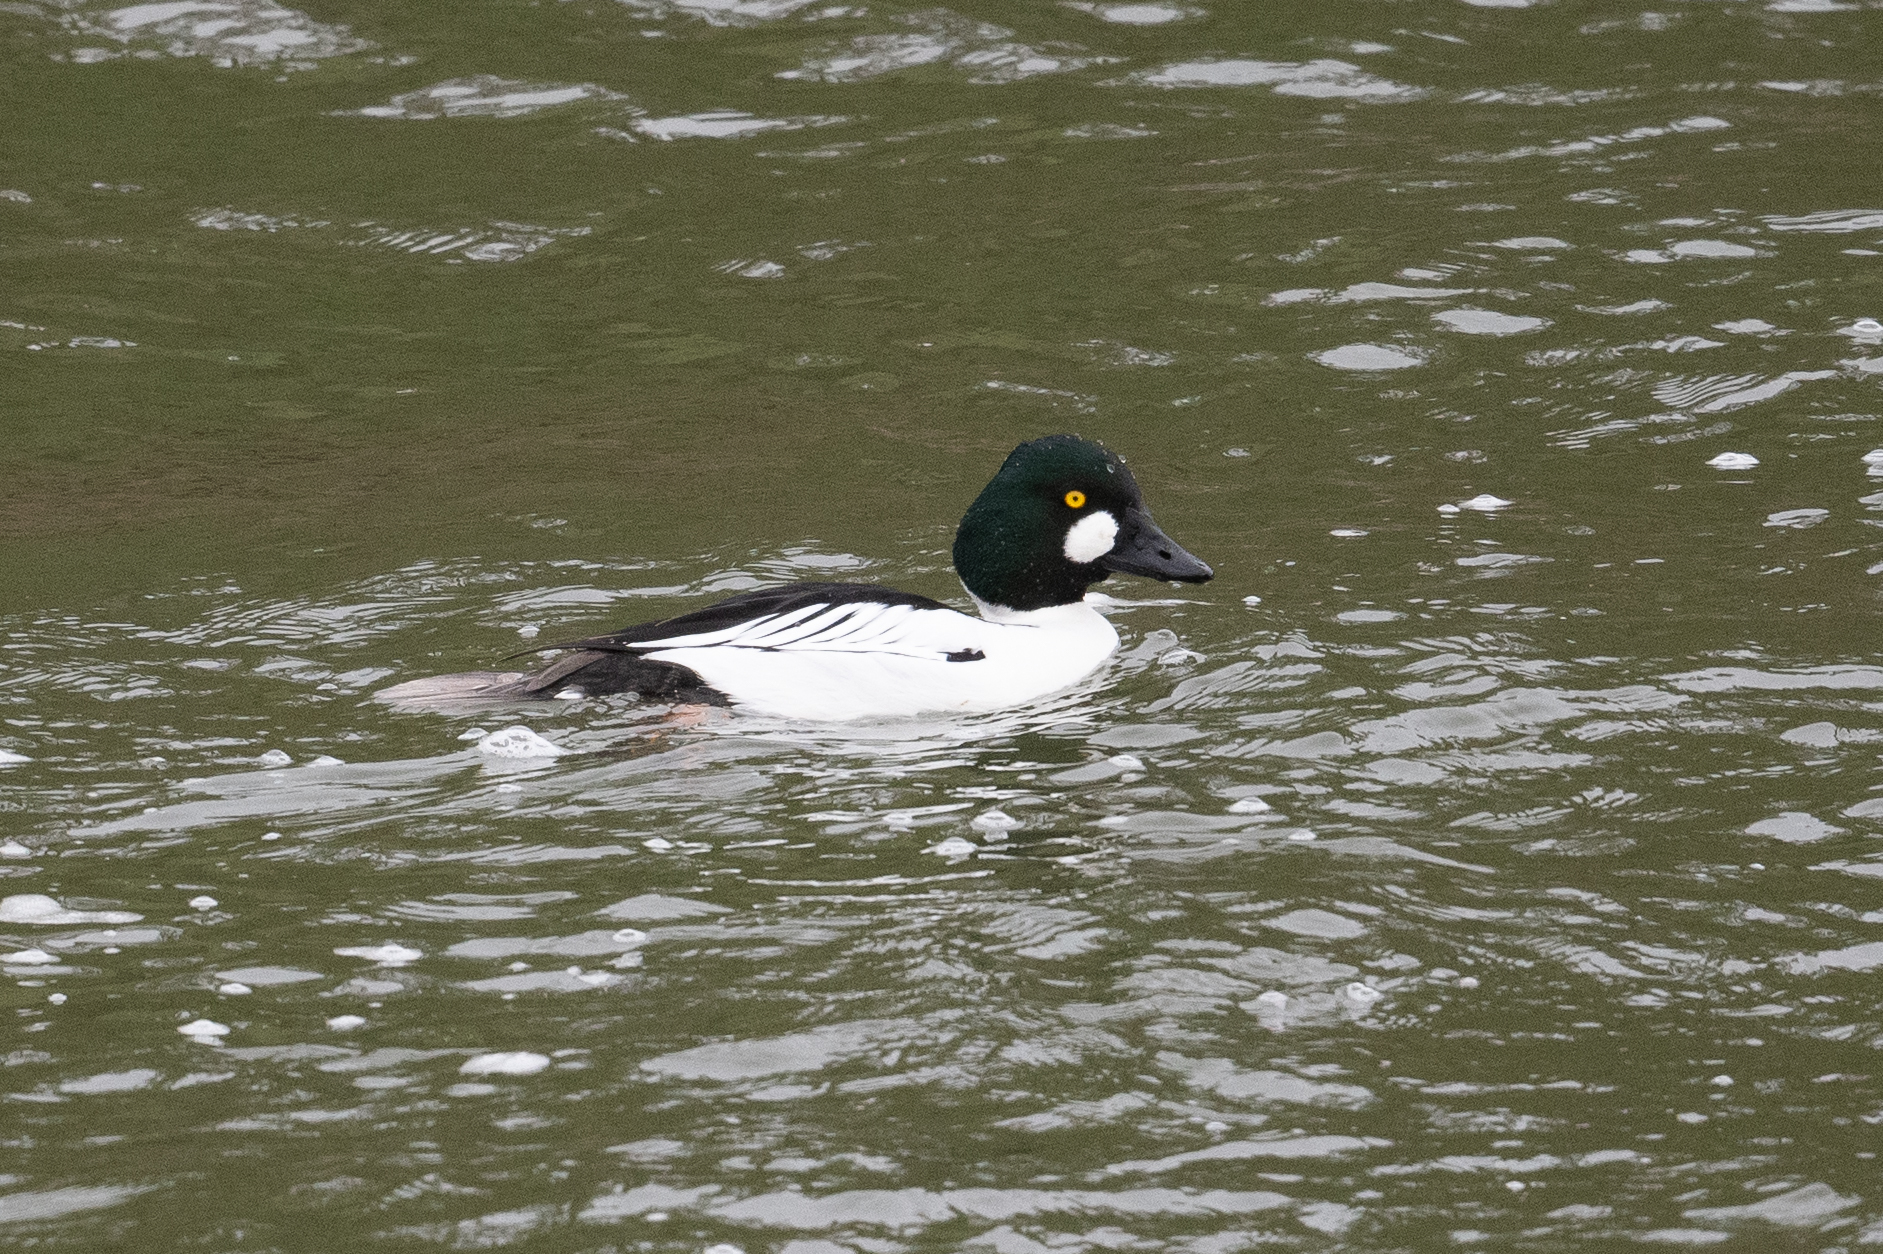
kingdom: Animalia
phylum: Chordata
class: Aves
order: Anseriformes
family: Anatidae
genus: Bucephala
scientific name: Bucephala clangula
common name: Common goldeneye
